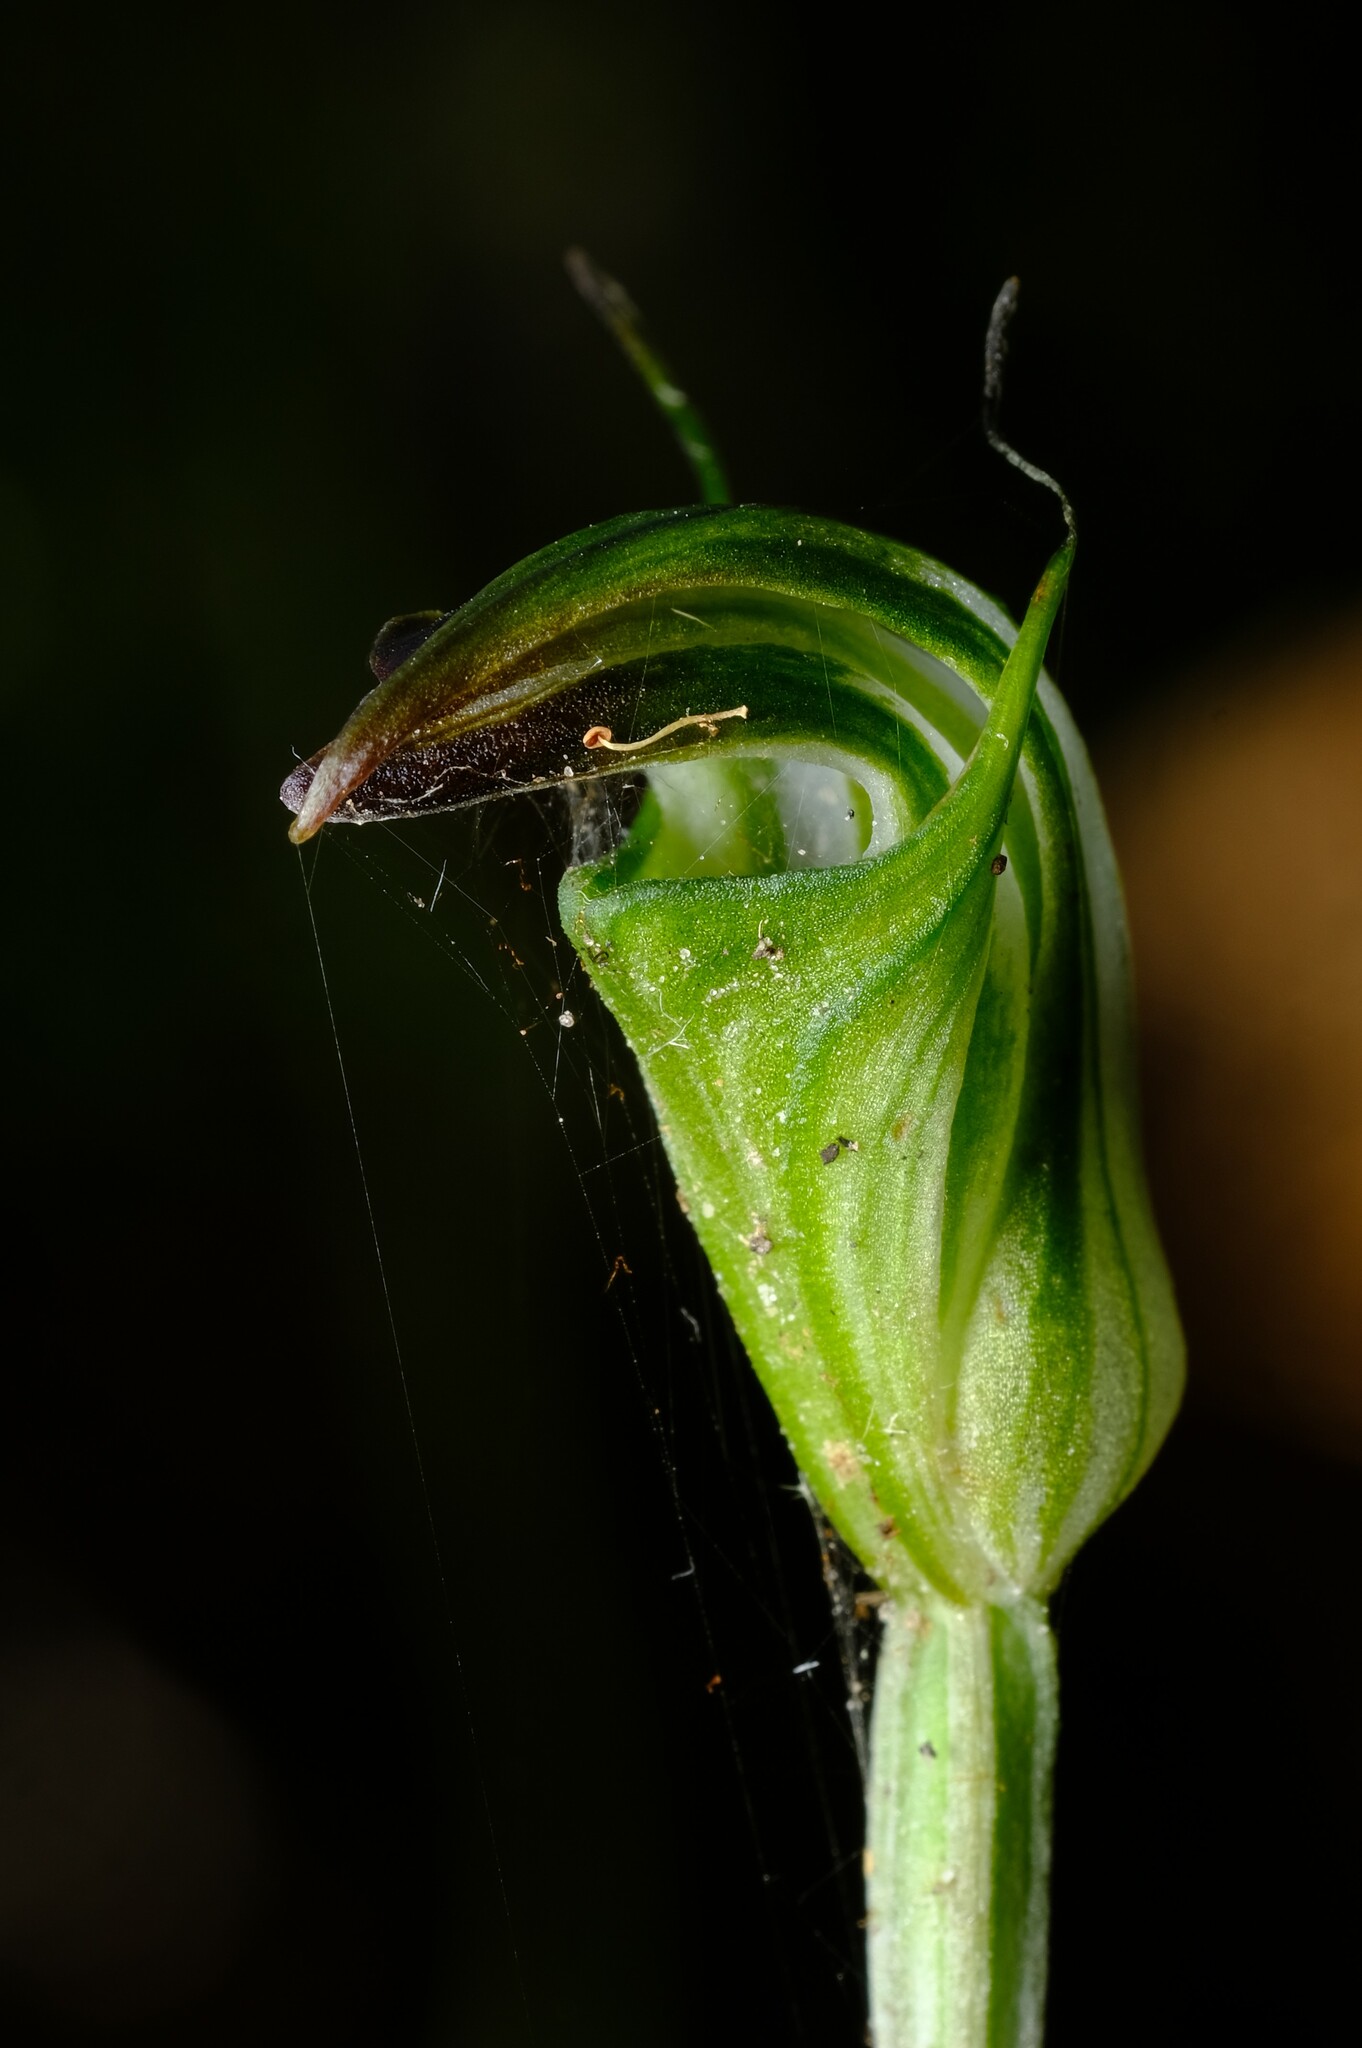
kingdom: Plantae
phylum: Tracheophyta
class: Liliopsida
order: Asparagales
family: Orchidaceae
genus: Pterostylis
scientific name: Pterostylis atrans
